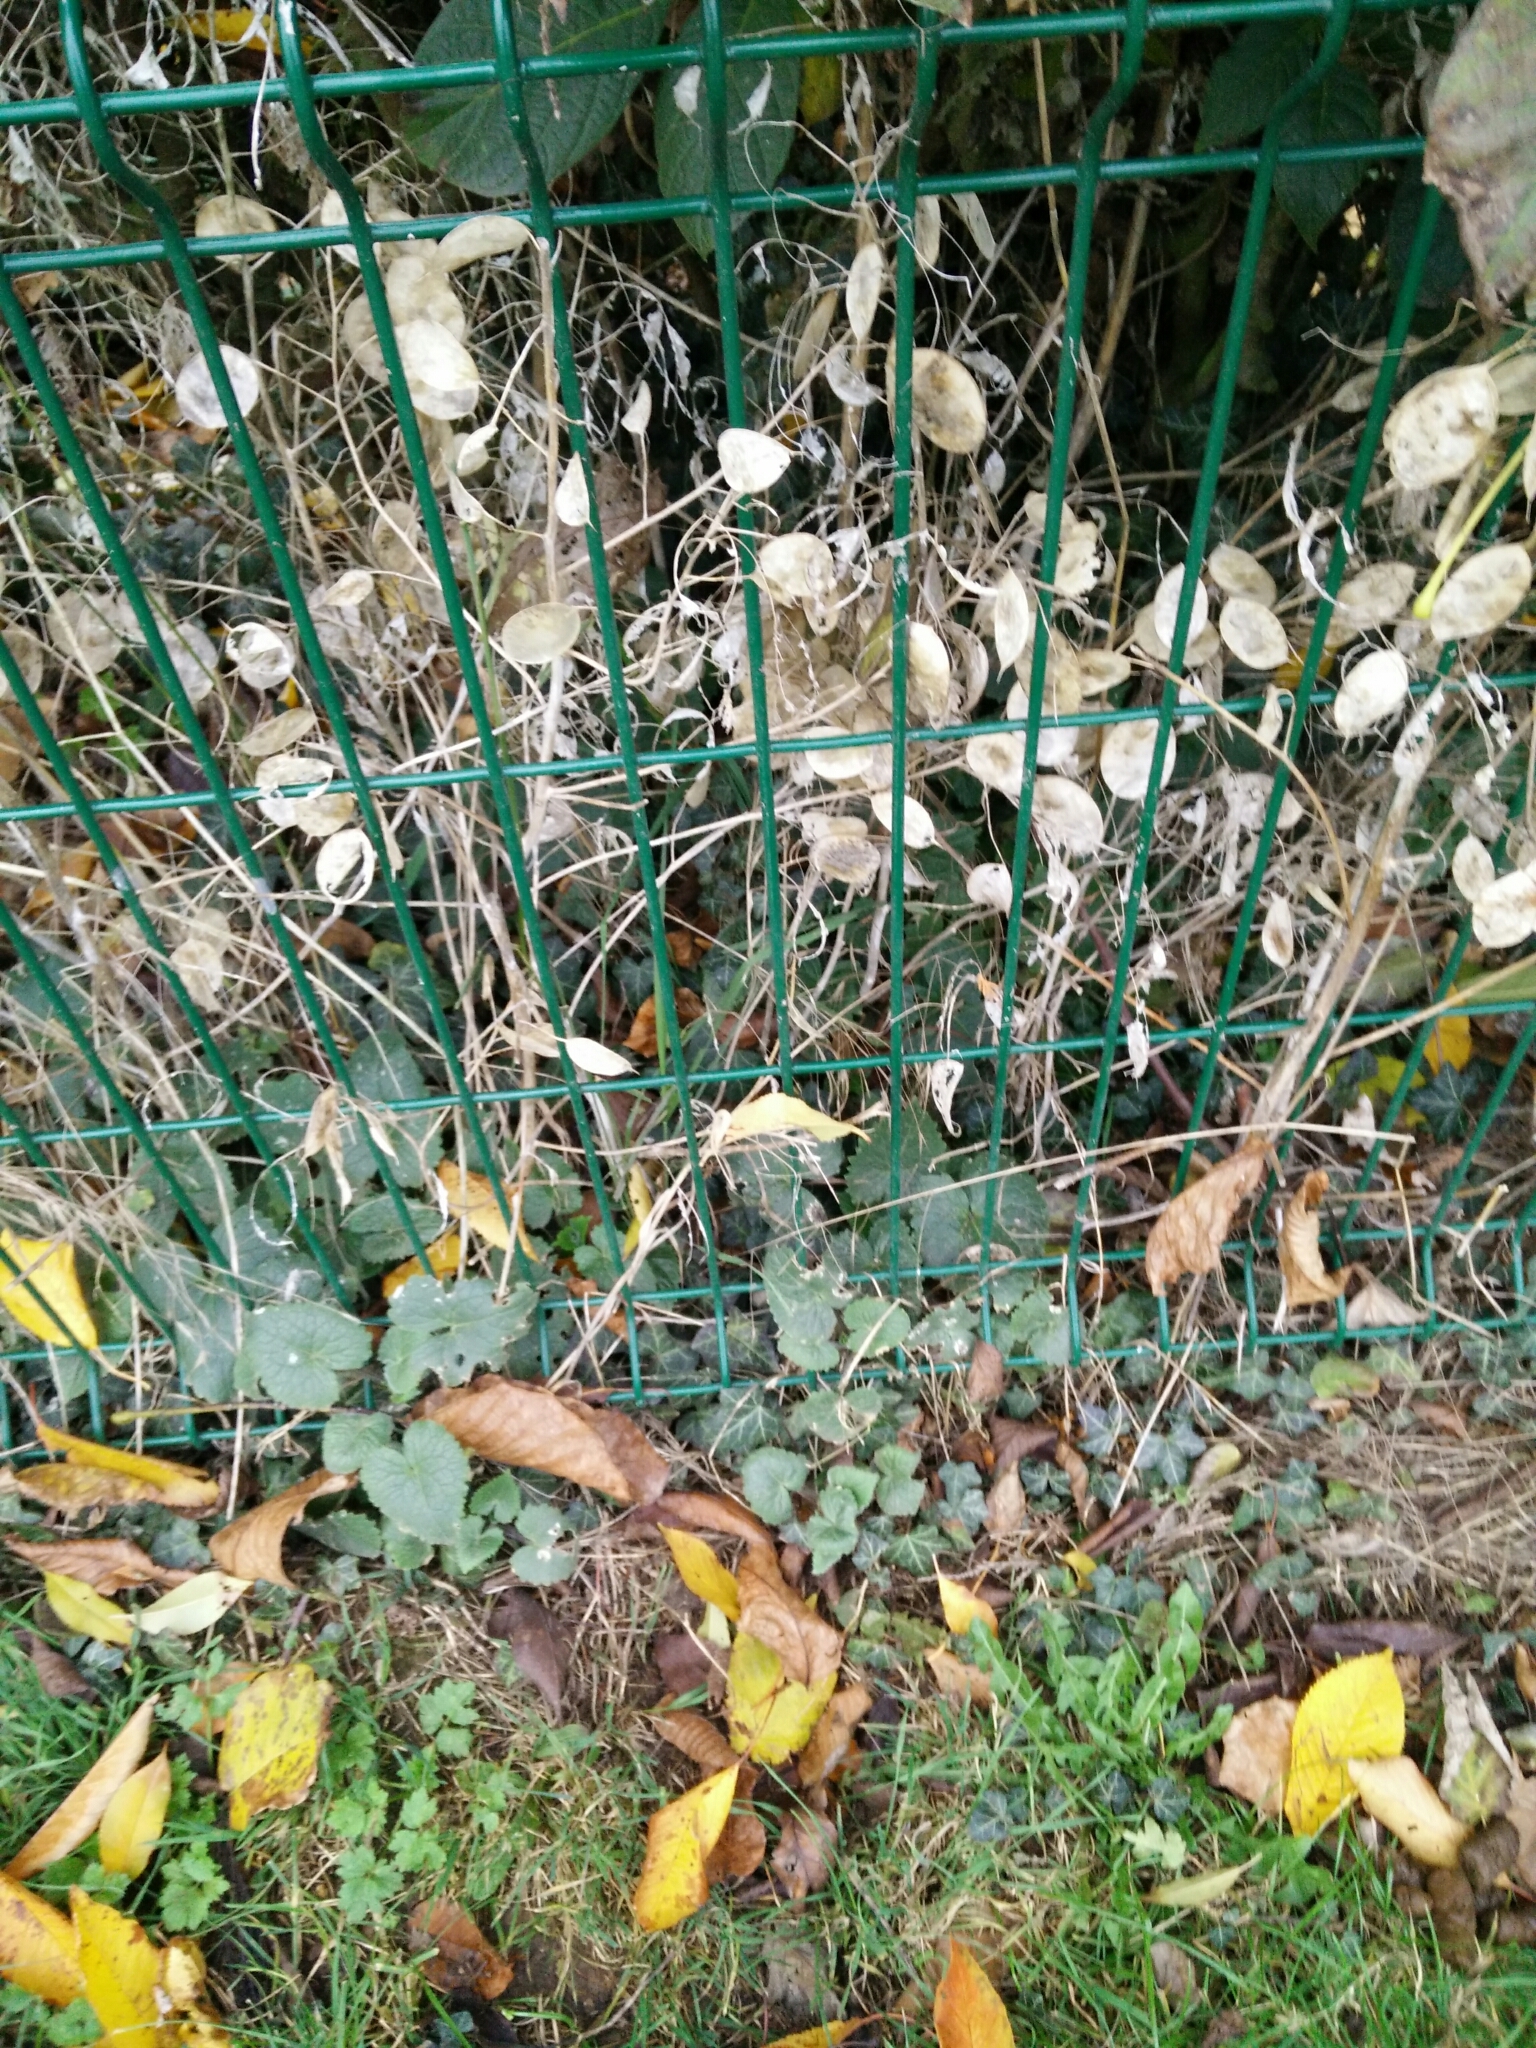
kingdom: Plantae
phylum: Tracheophyta
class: Magnoliopsida
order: Brassicales
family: Brassicaceae
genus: Lunaria
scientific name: Lunaria annua
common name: Honesty
